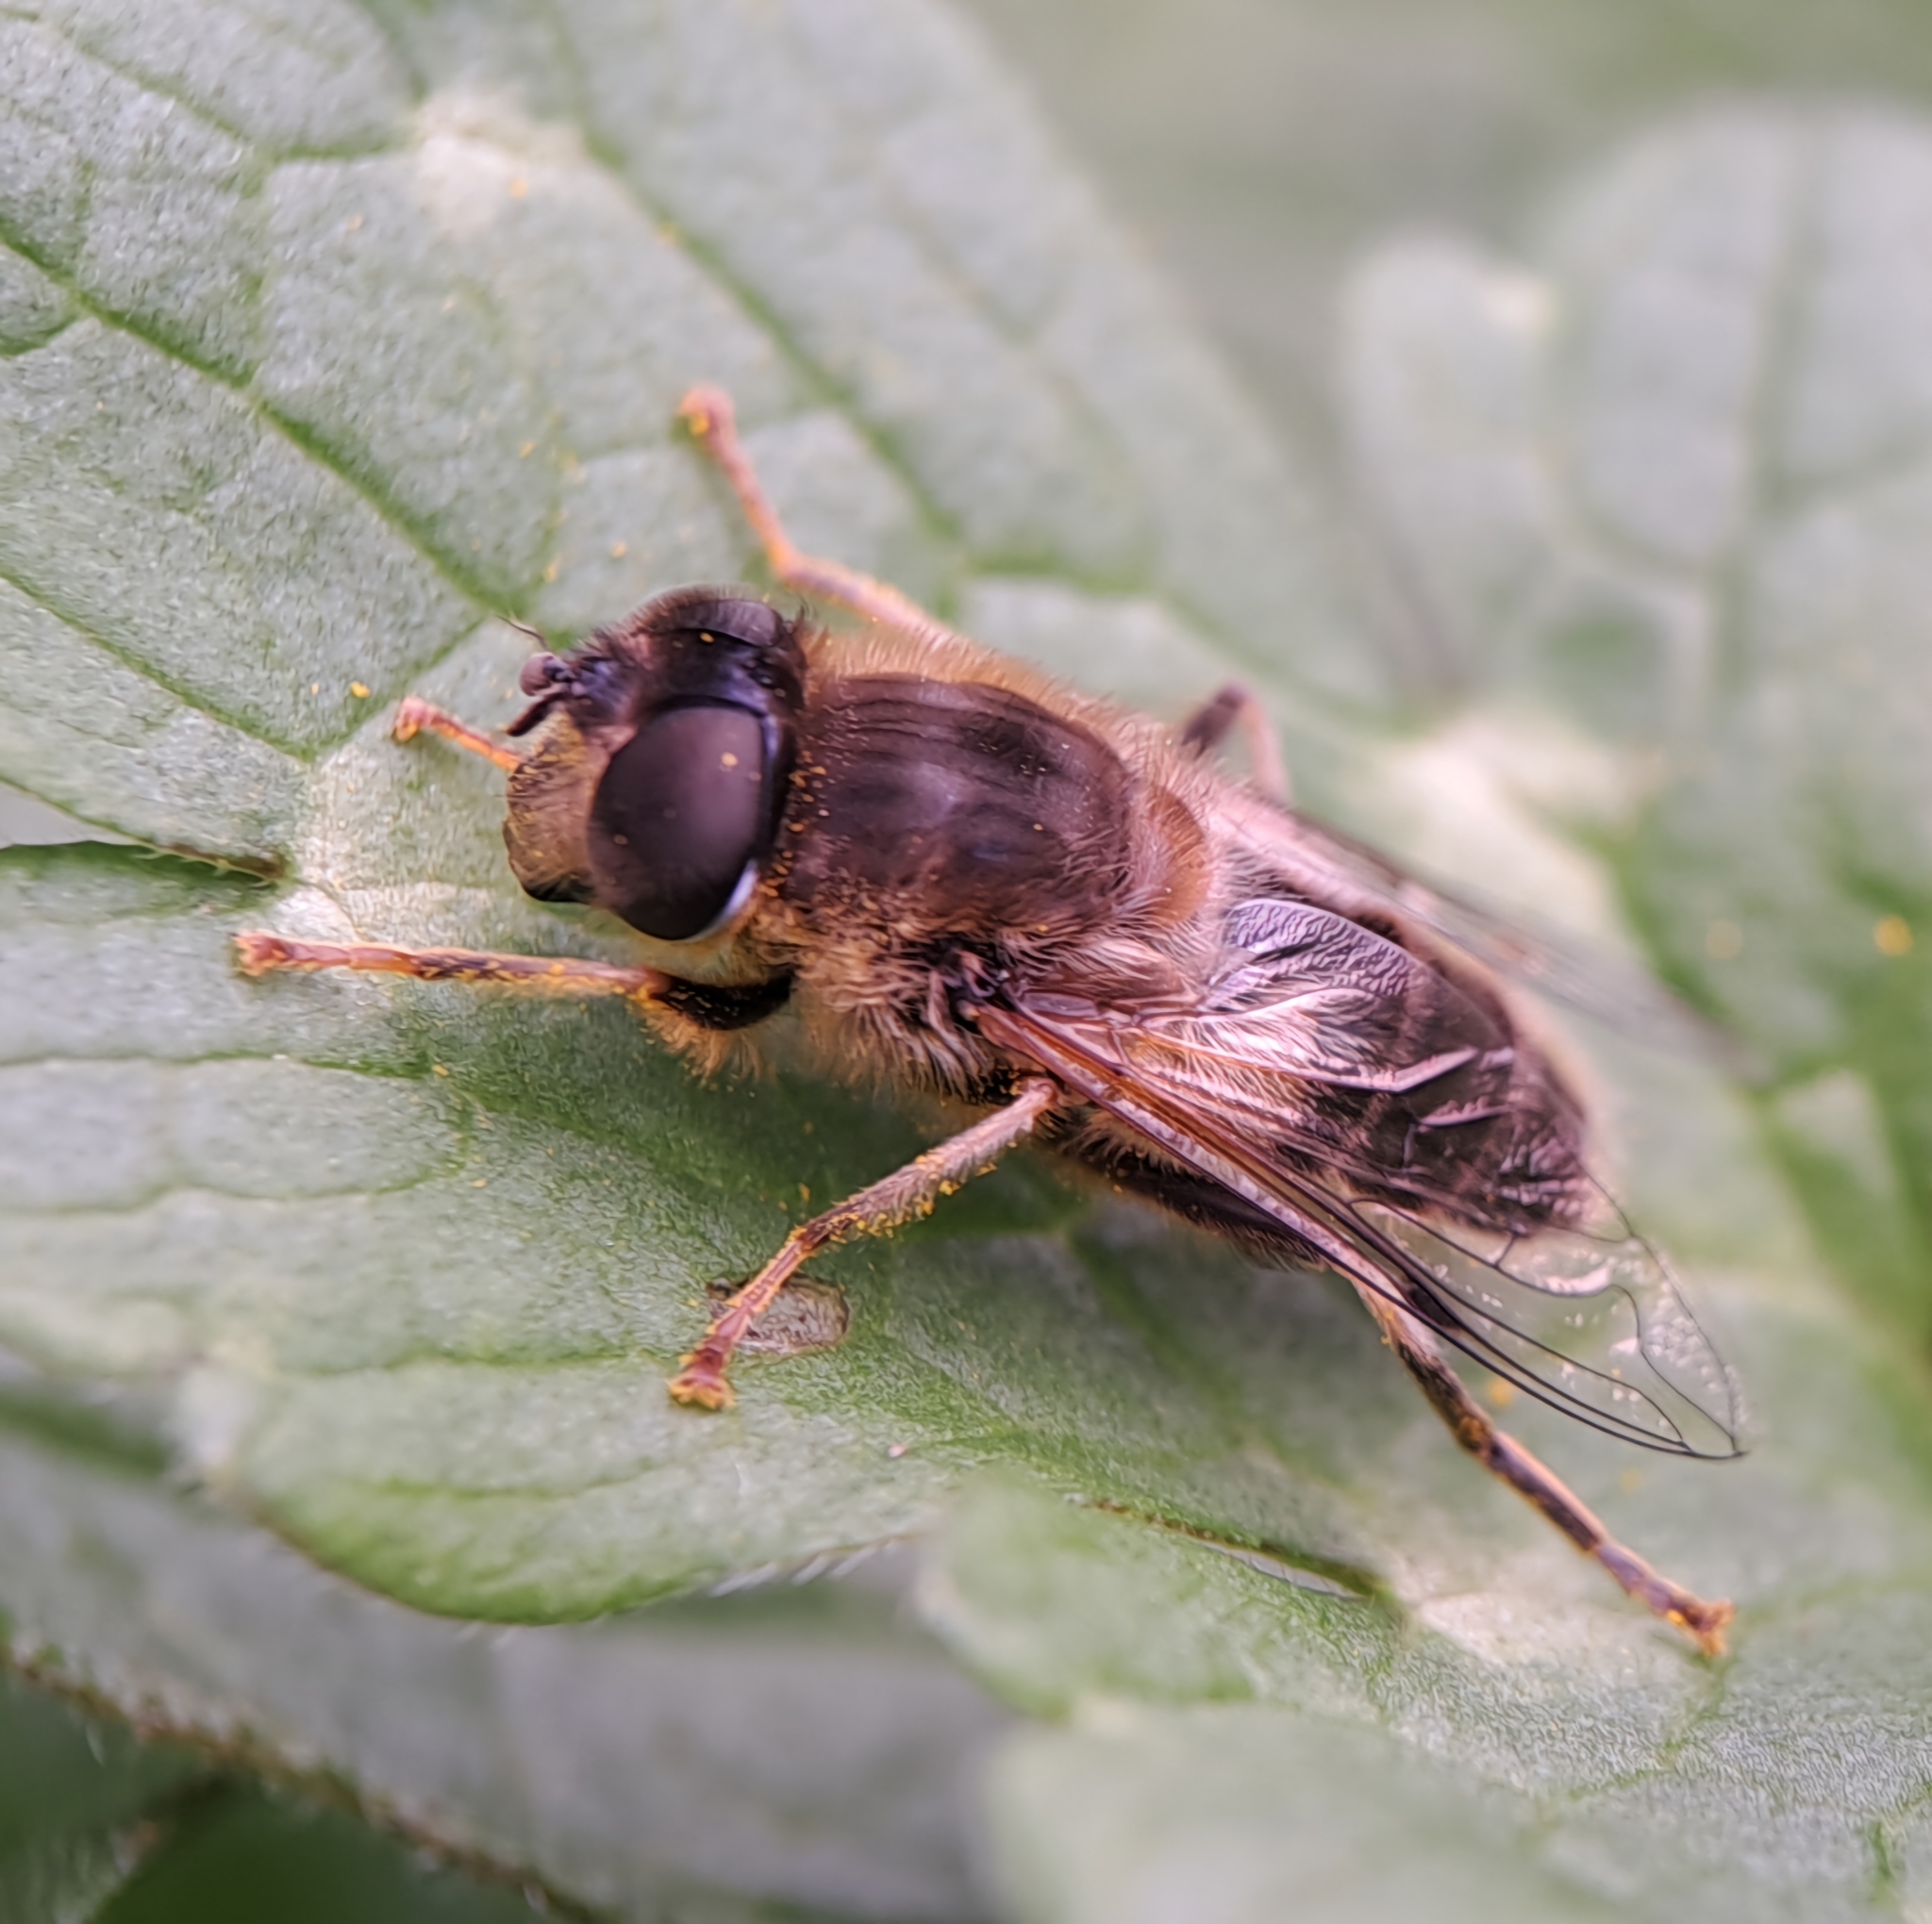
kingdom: Animalia
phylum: Arthropoda
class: Insecta
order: Diptera
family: Syrphidae
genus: Eristalis
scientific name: Eristalis pertinax
